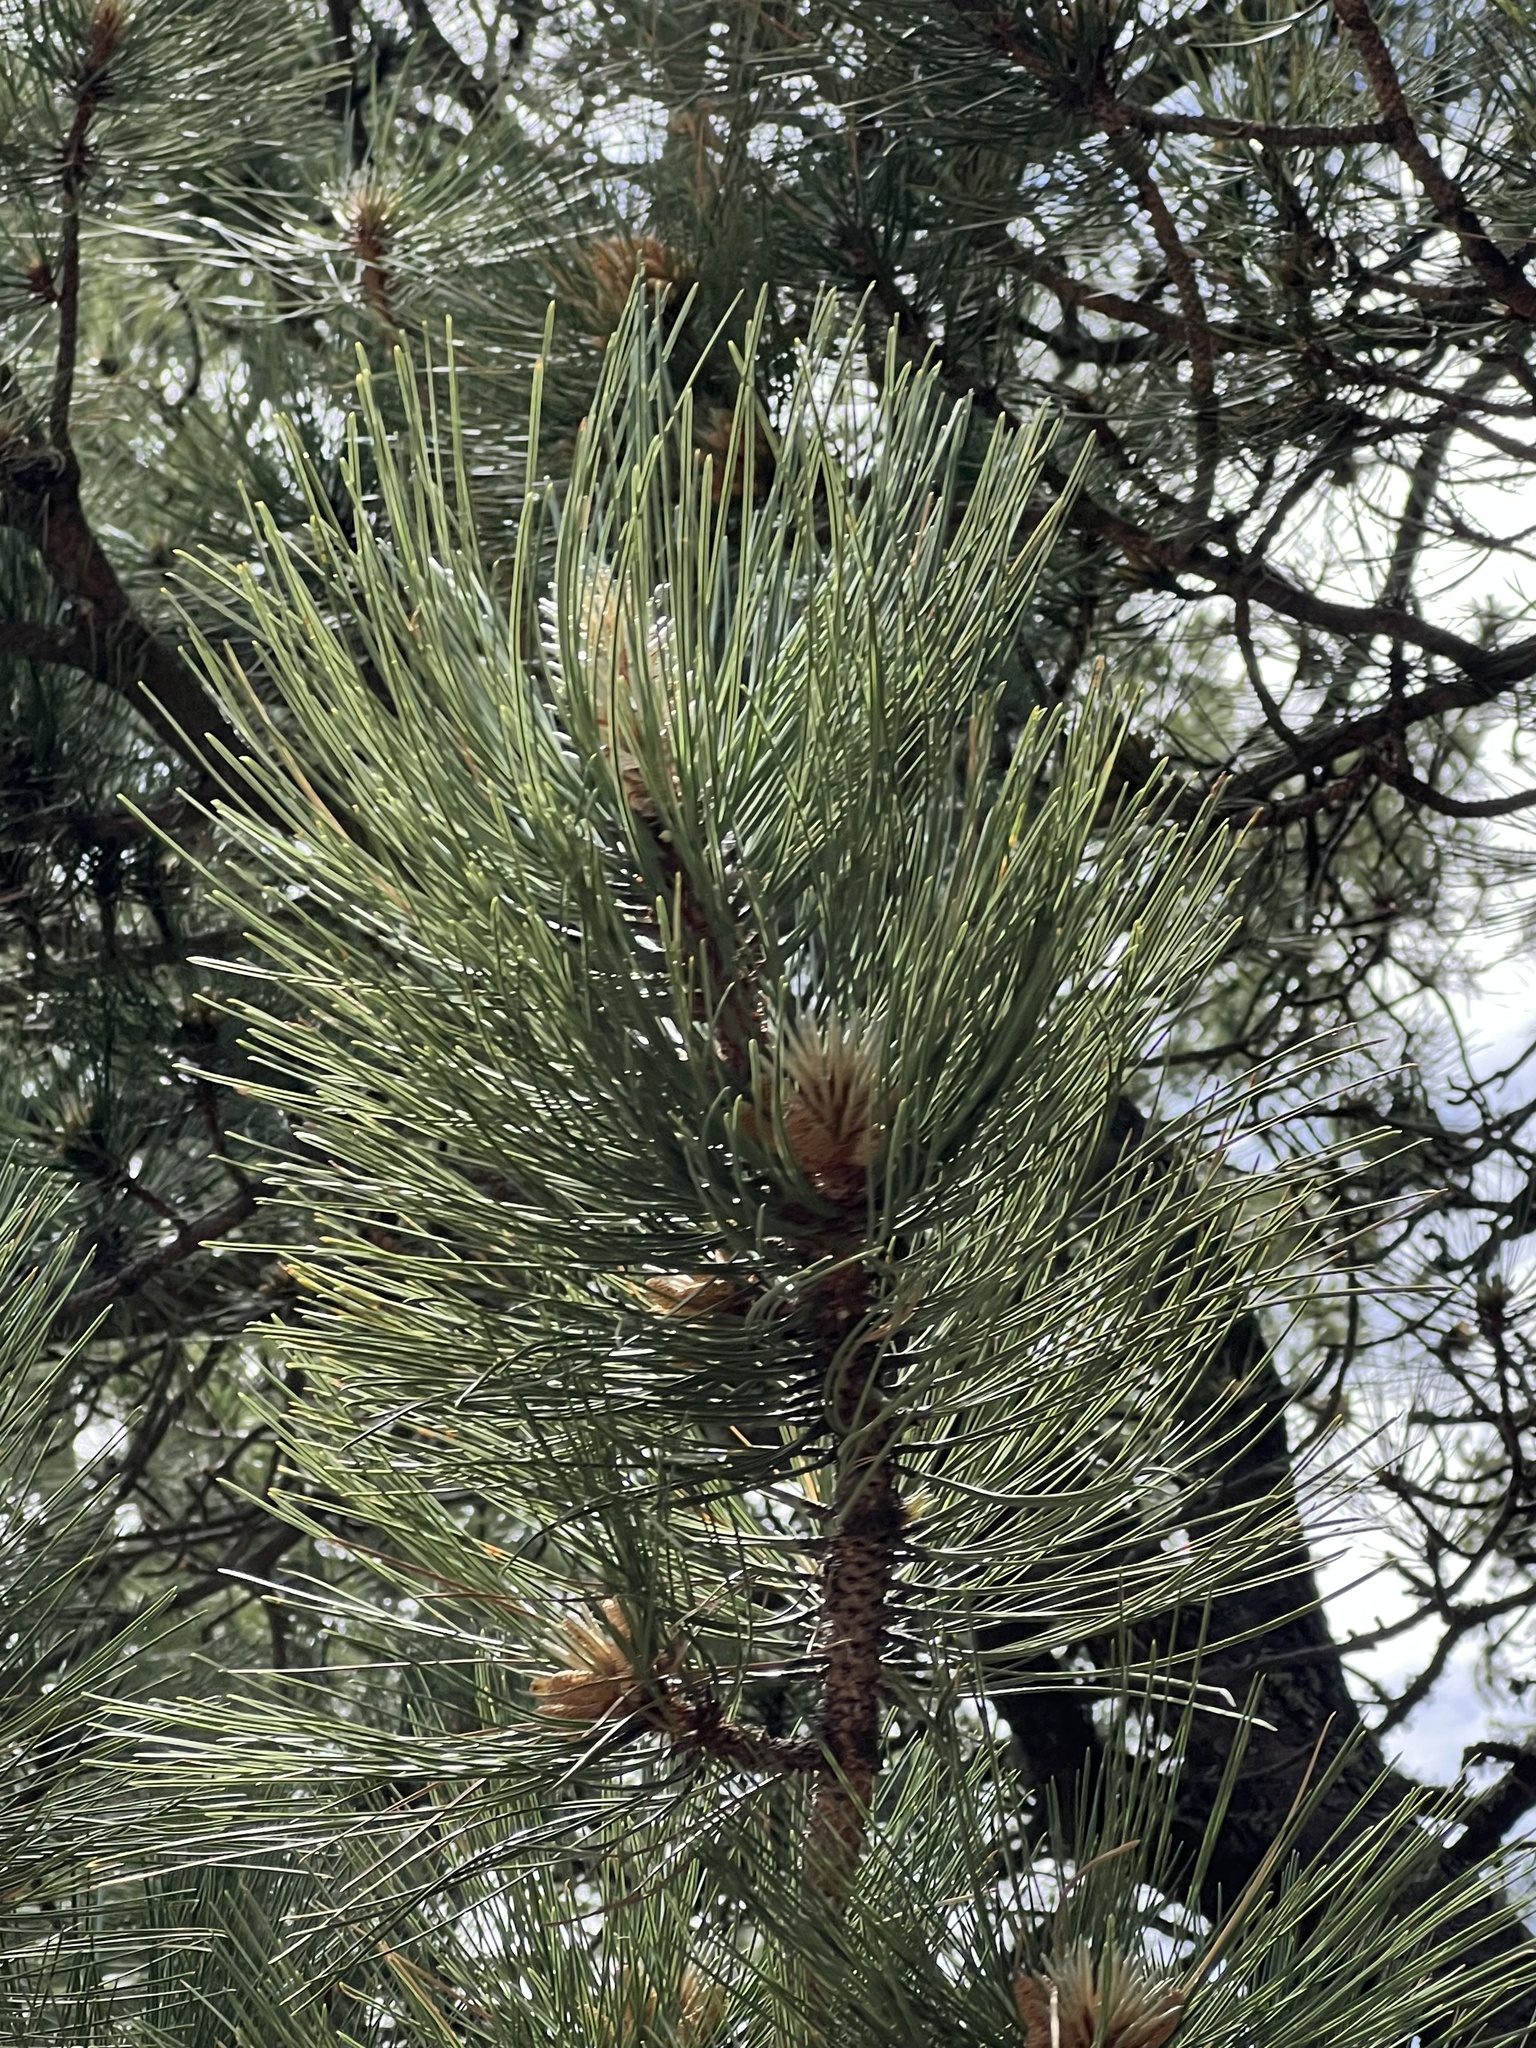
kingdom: Plantae
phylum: Tracheophyta
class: Pinopsida
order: Pinales
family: Pinaceae
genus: Pinus
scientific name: Pinus ponderosa
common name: Western yellow-pine
